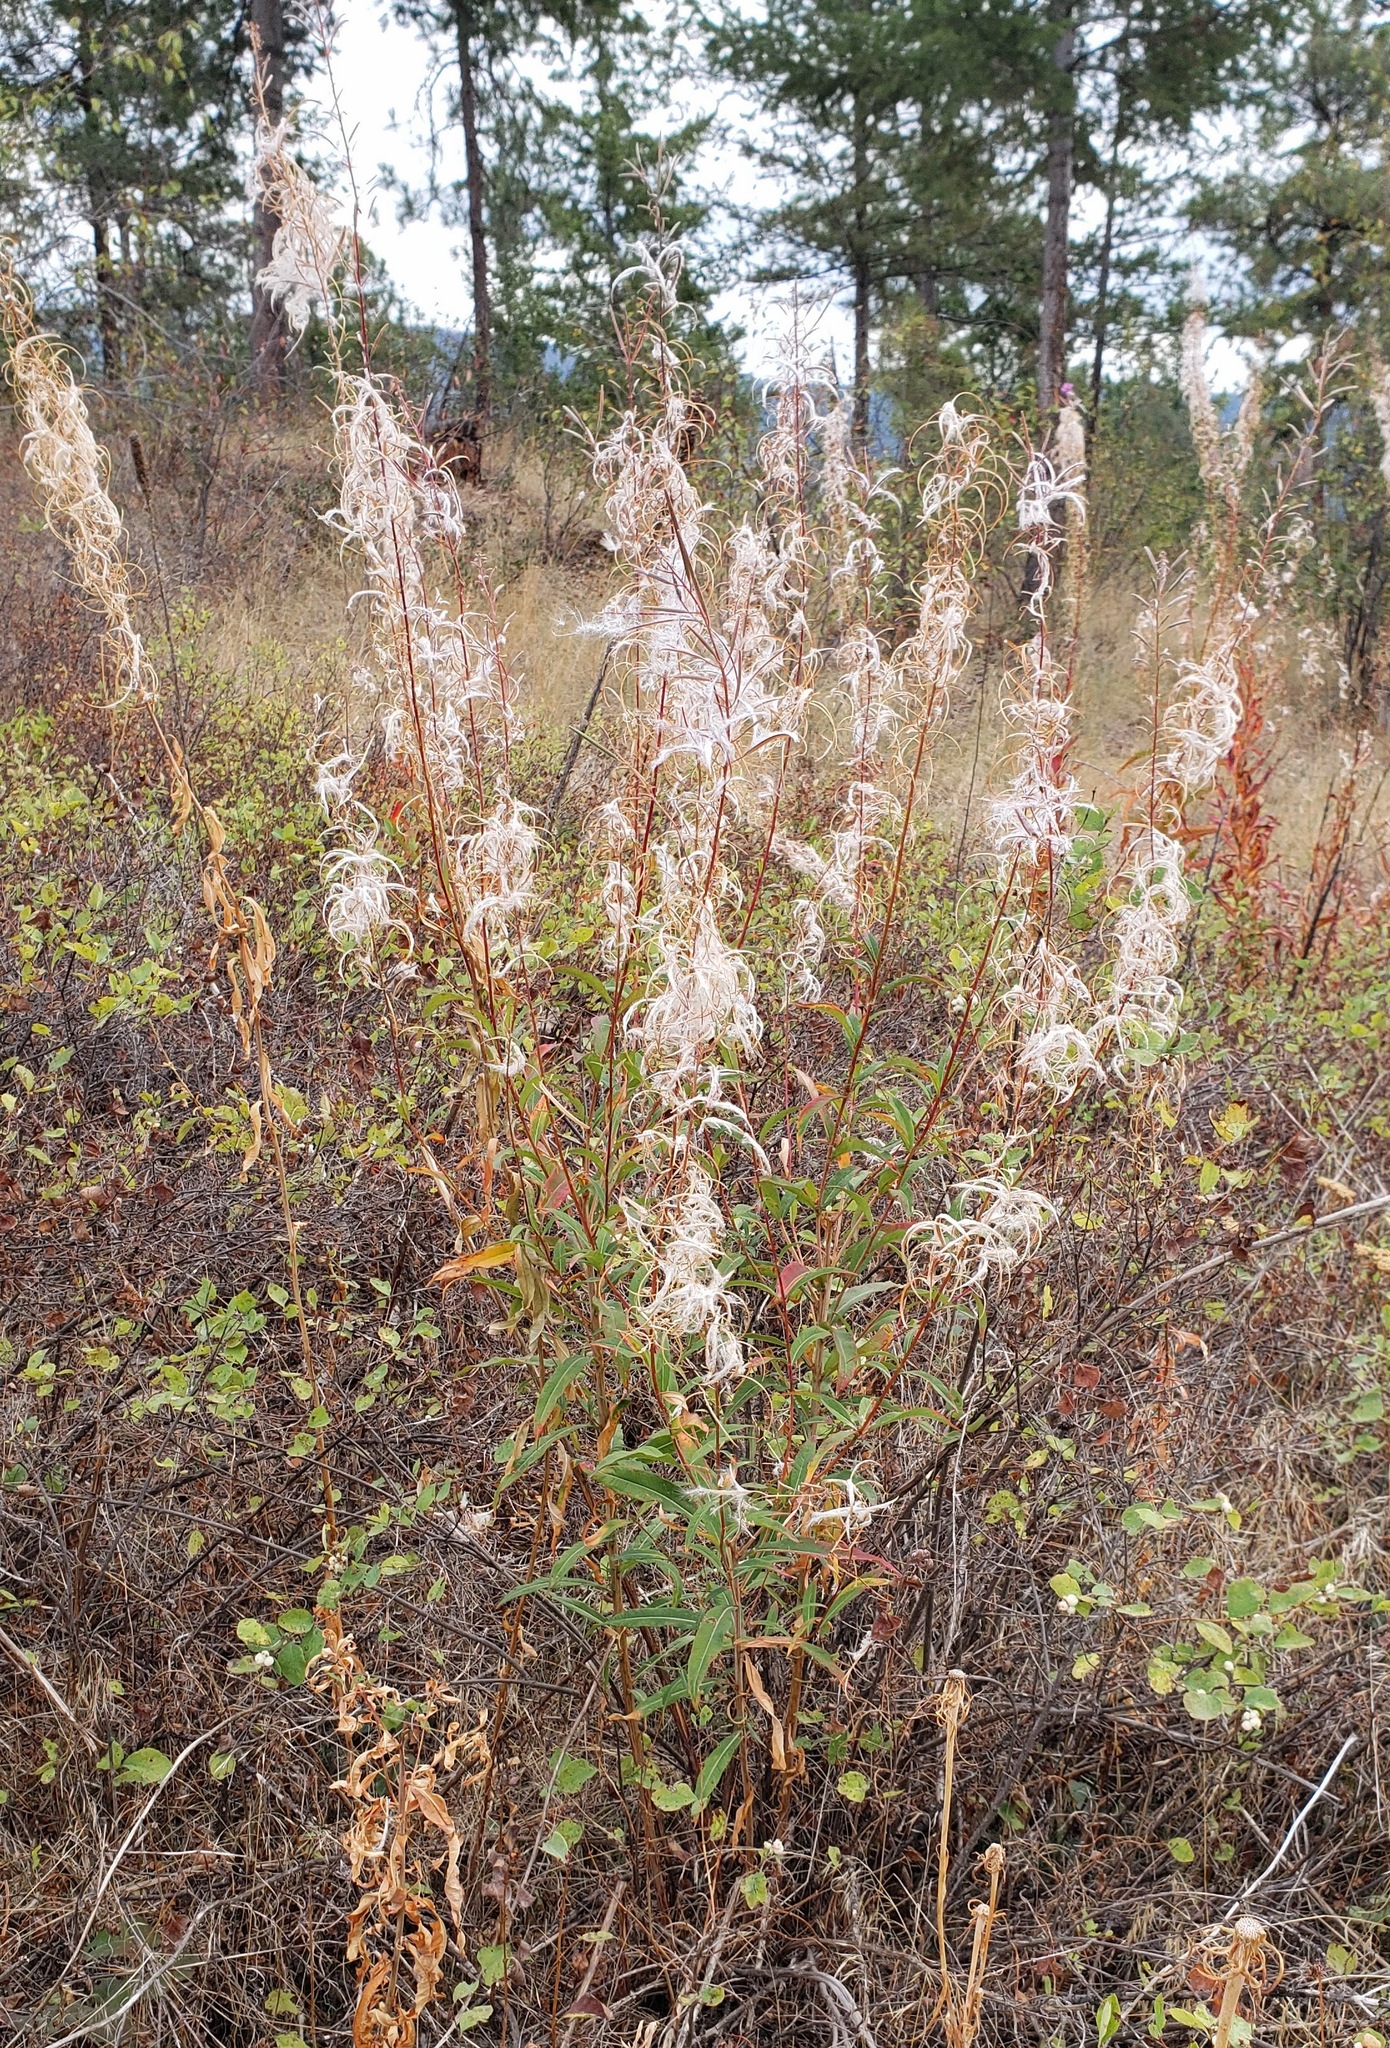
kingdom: Plantae
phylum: Tracheophyta
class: Magnoliopsida
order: Myrtales
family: Onagraceae
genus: Chamaenerion
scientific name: Chamaenerion angustifolium
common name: Fireweed
